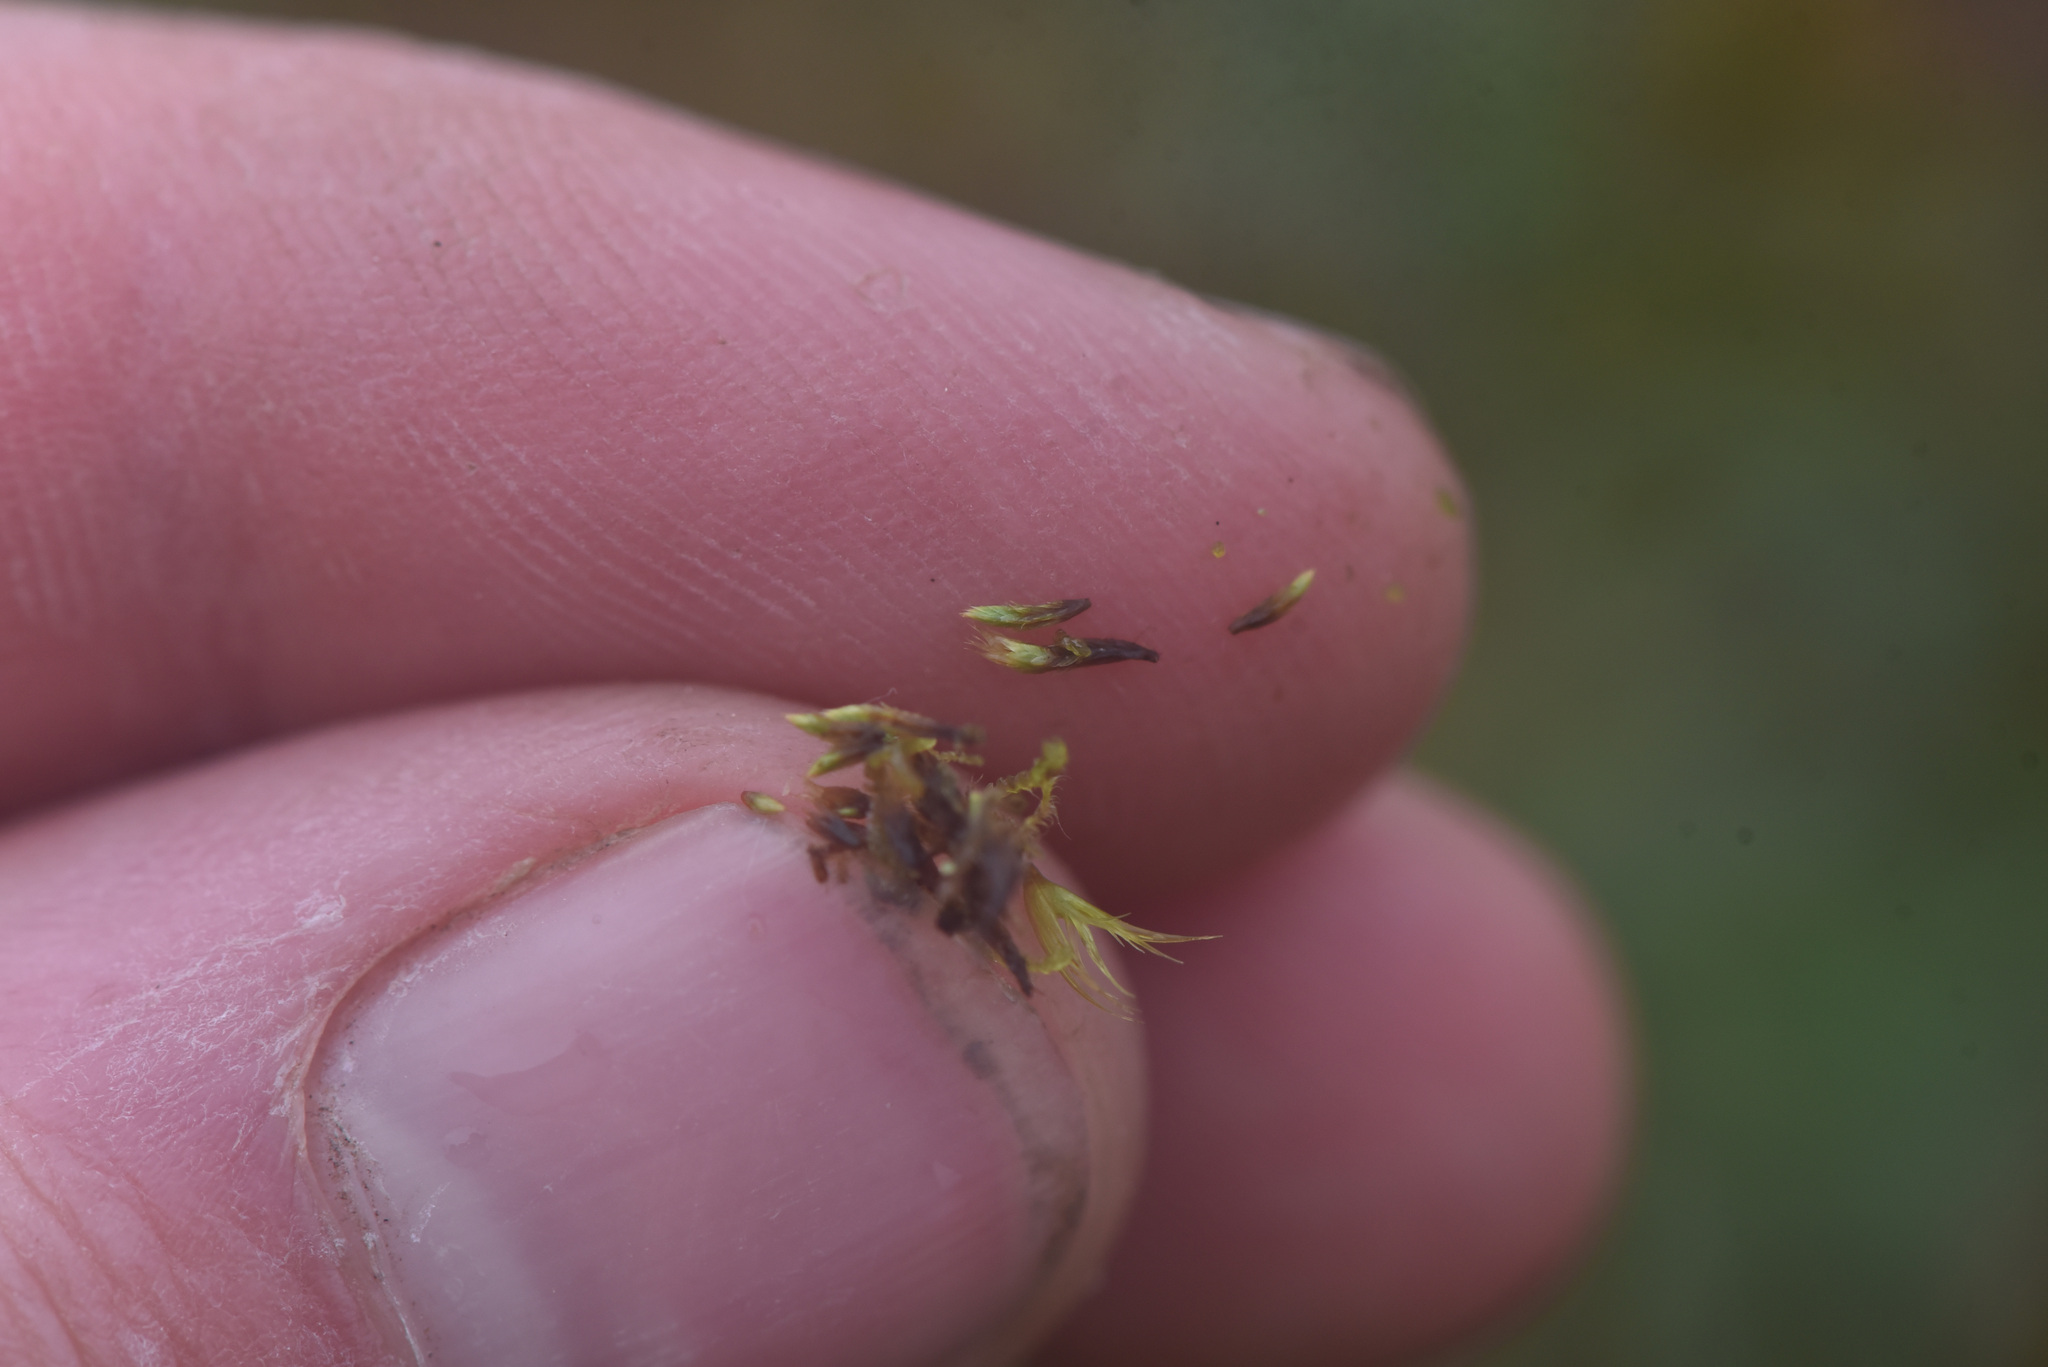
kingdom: Plantae
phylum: Bryophyta
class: Bryopsida
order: Bartramiales
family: Bartramiaceae
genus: Conostomum
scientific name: Conostomum tetragonum
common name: Helmet moss
